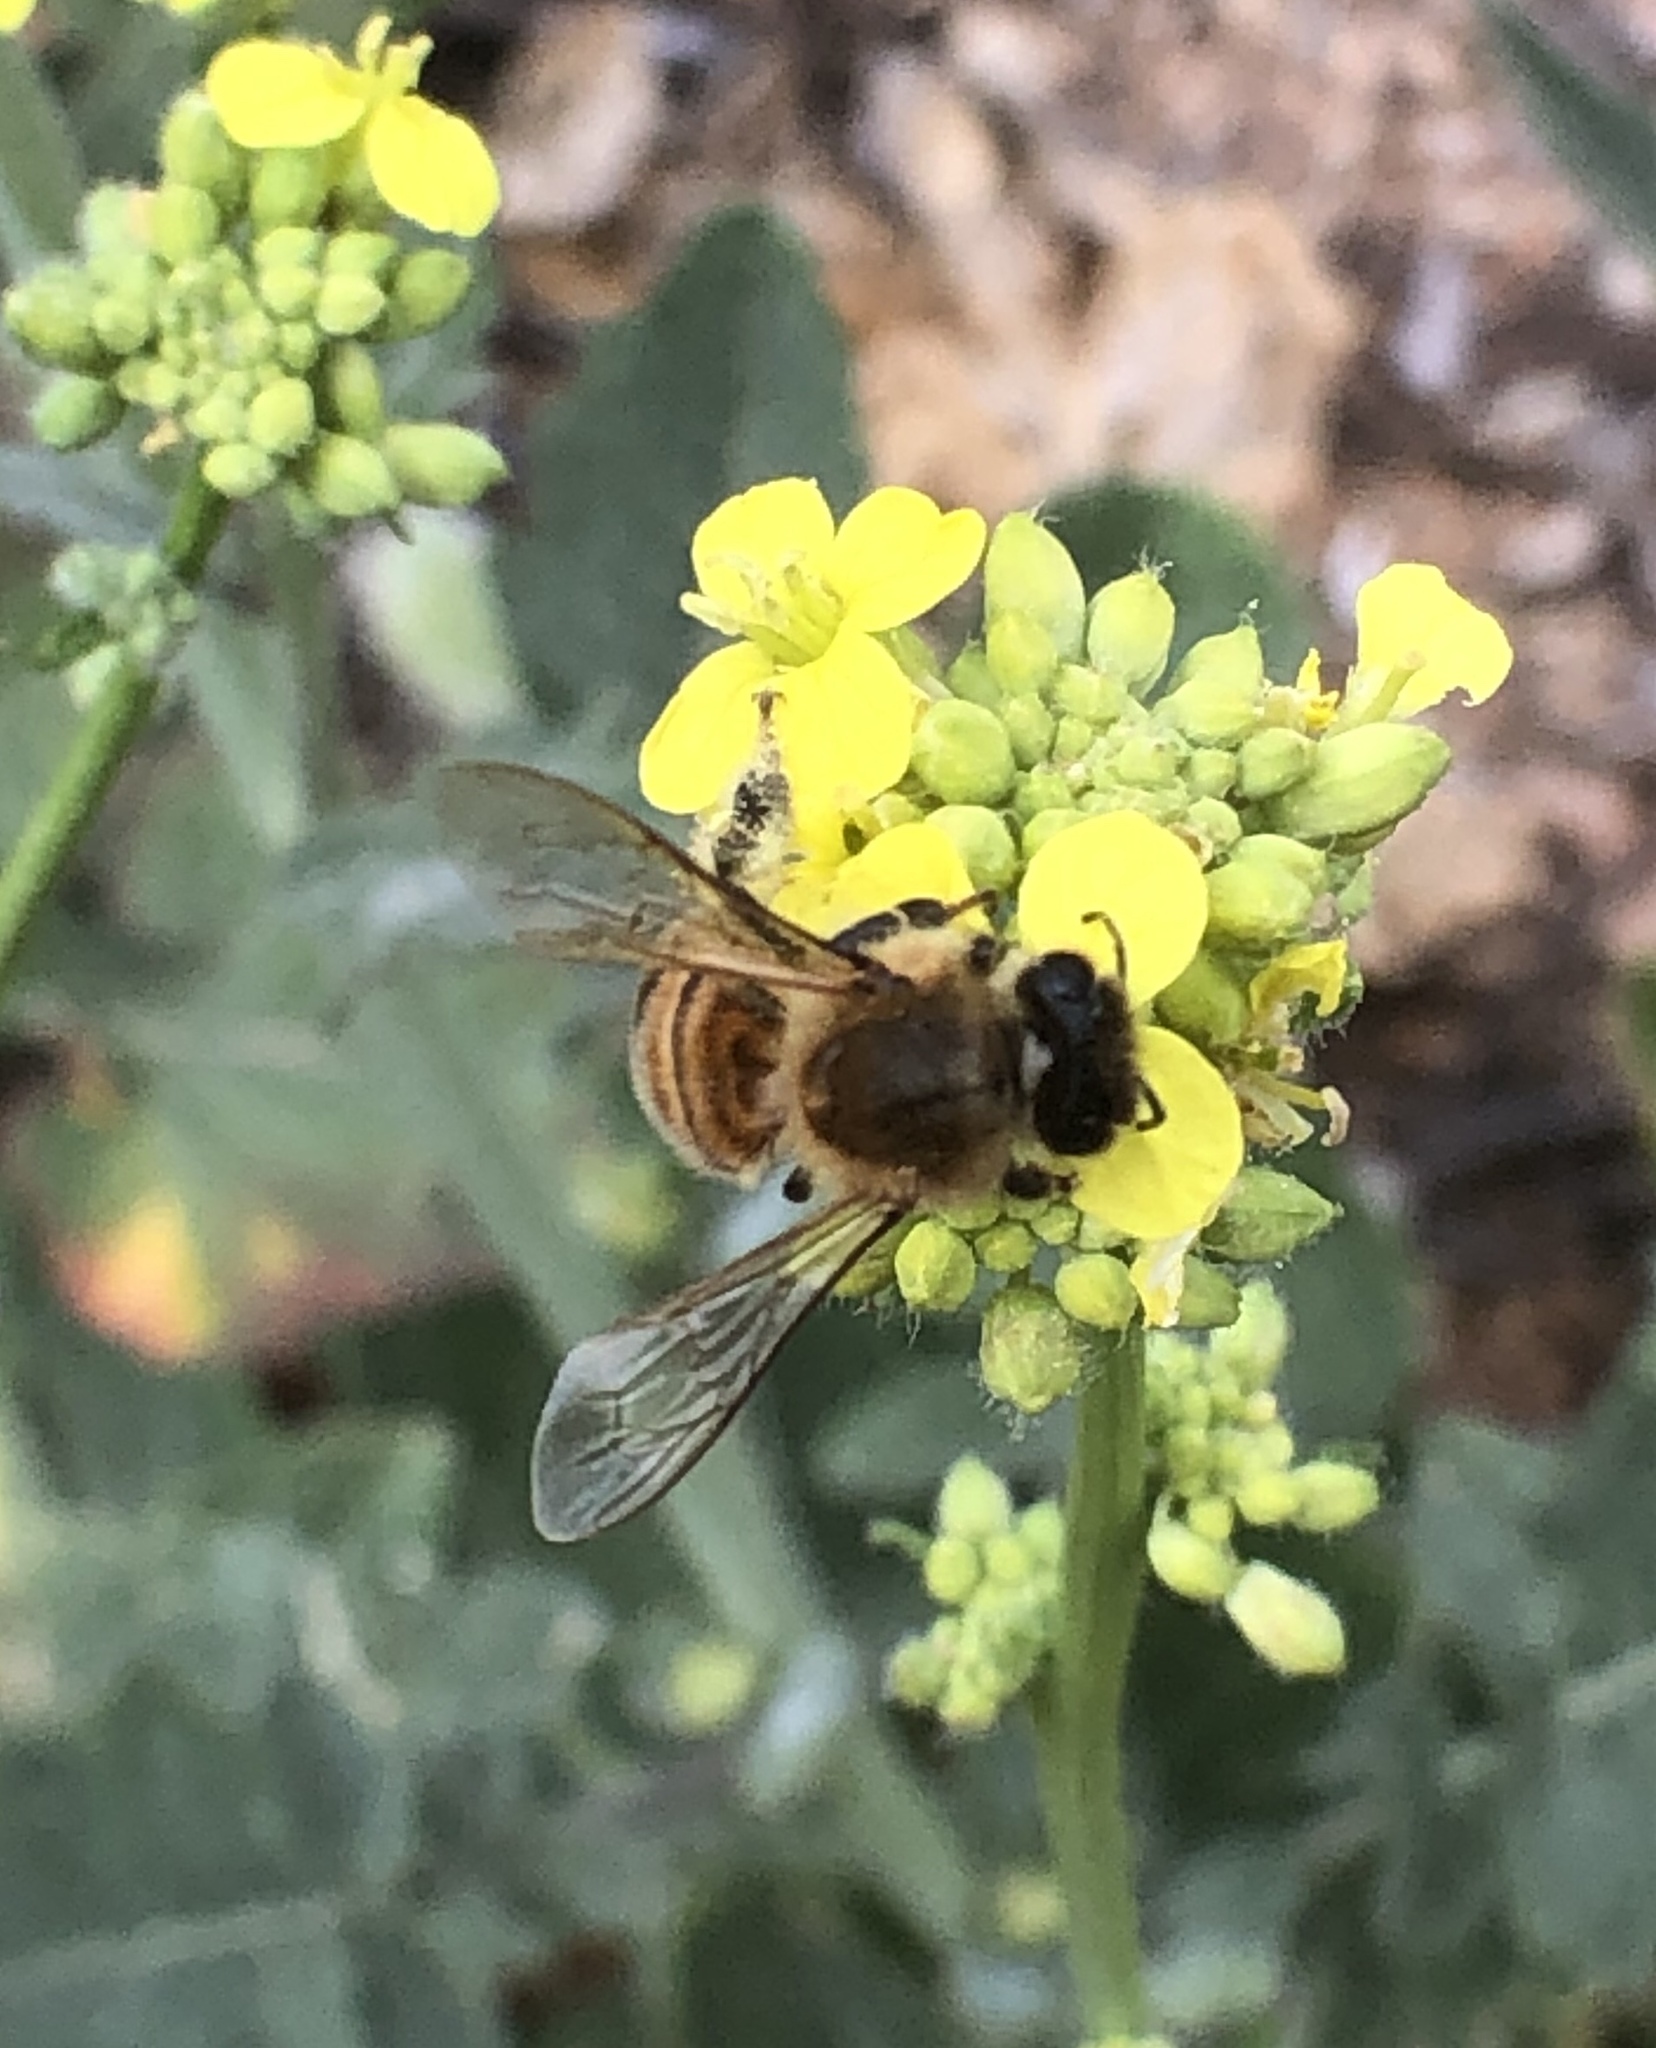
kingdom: Animalia
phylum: Arthropoda
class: Insecta
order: Hymenoptera
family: Apidae
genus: Apis
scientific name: Apis mellifera
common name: Honey bee
